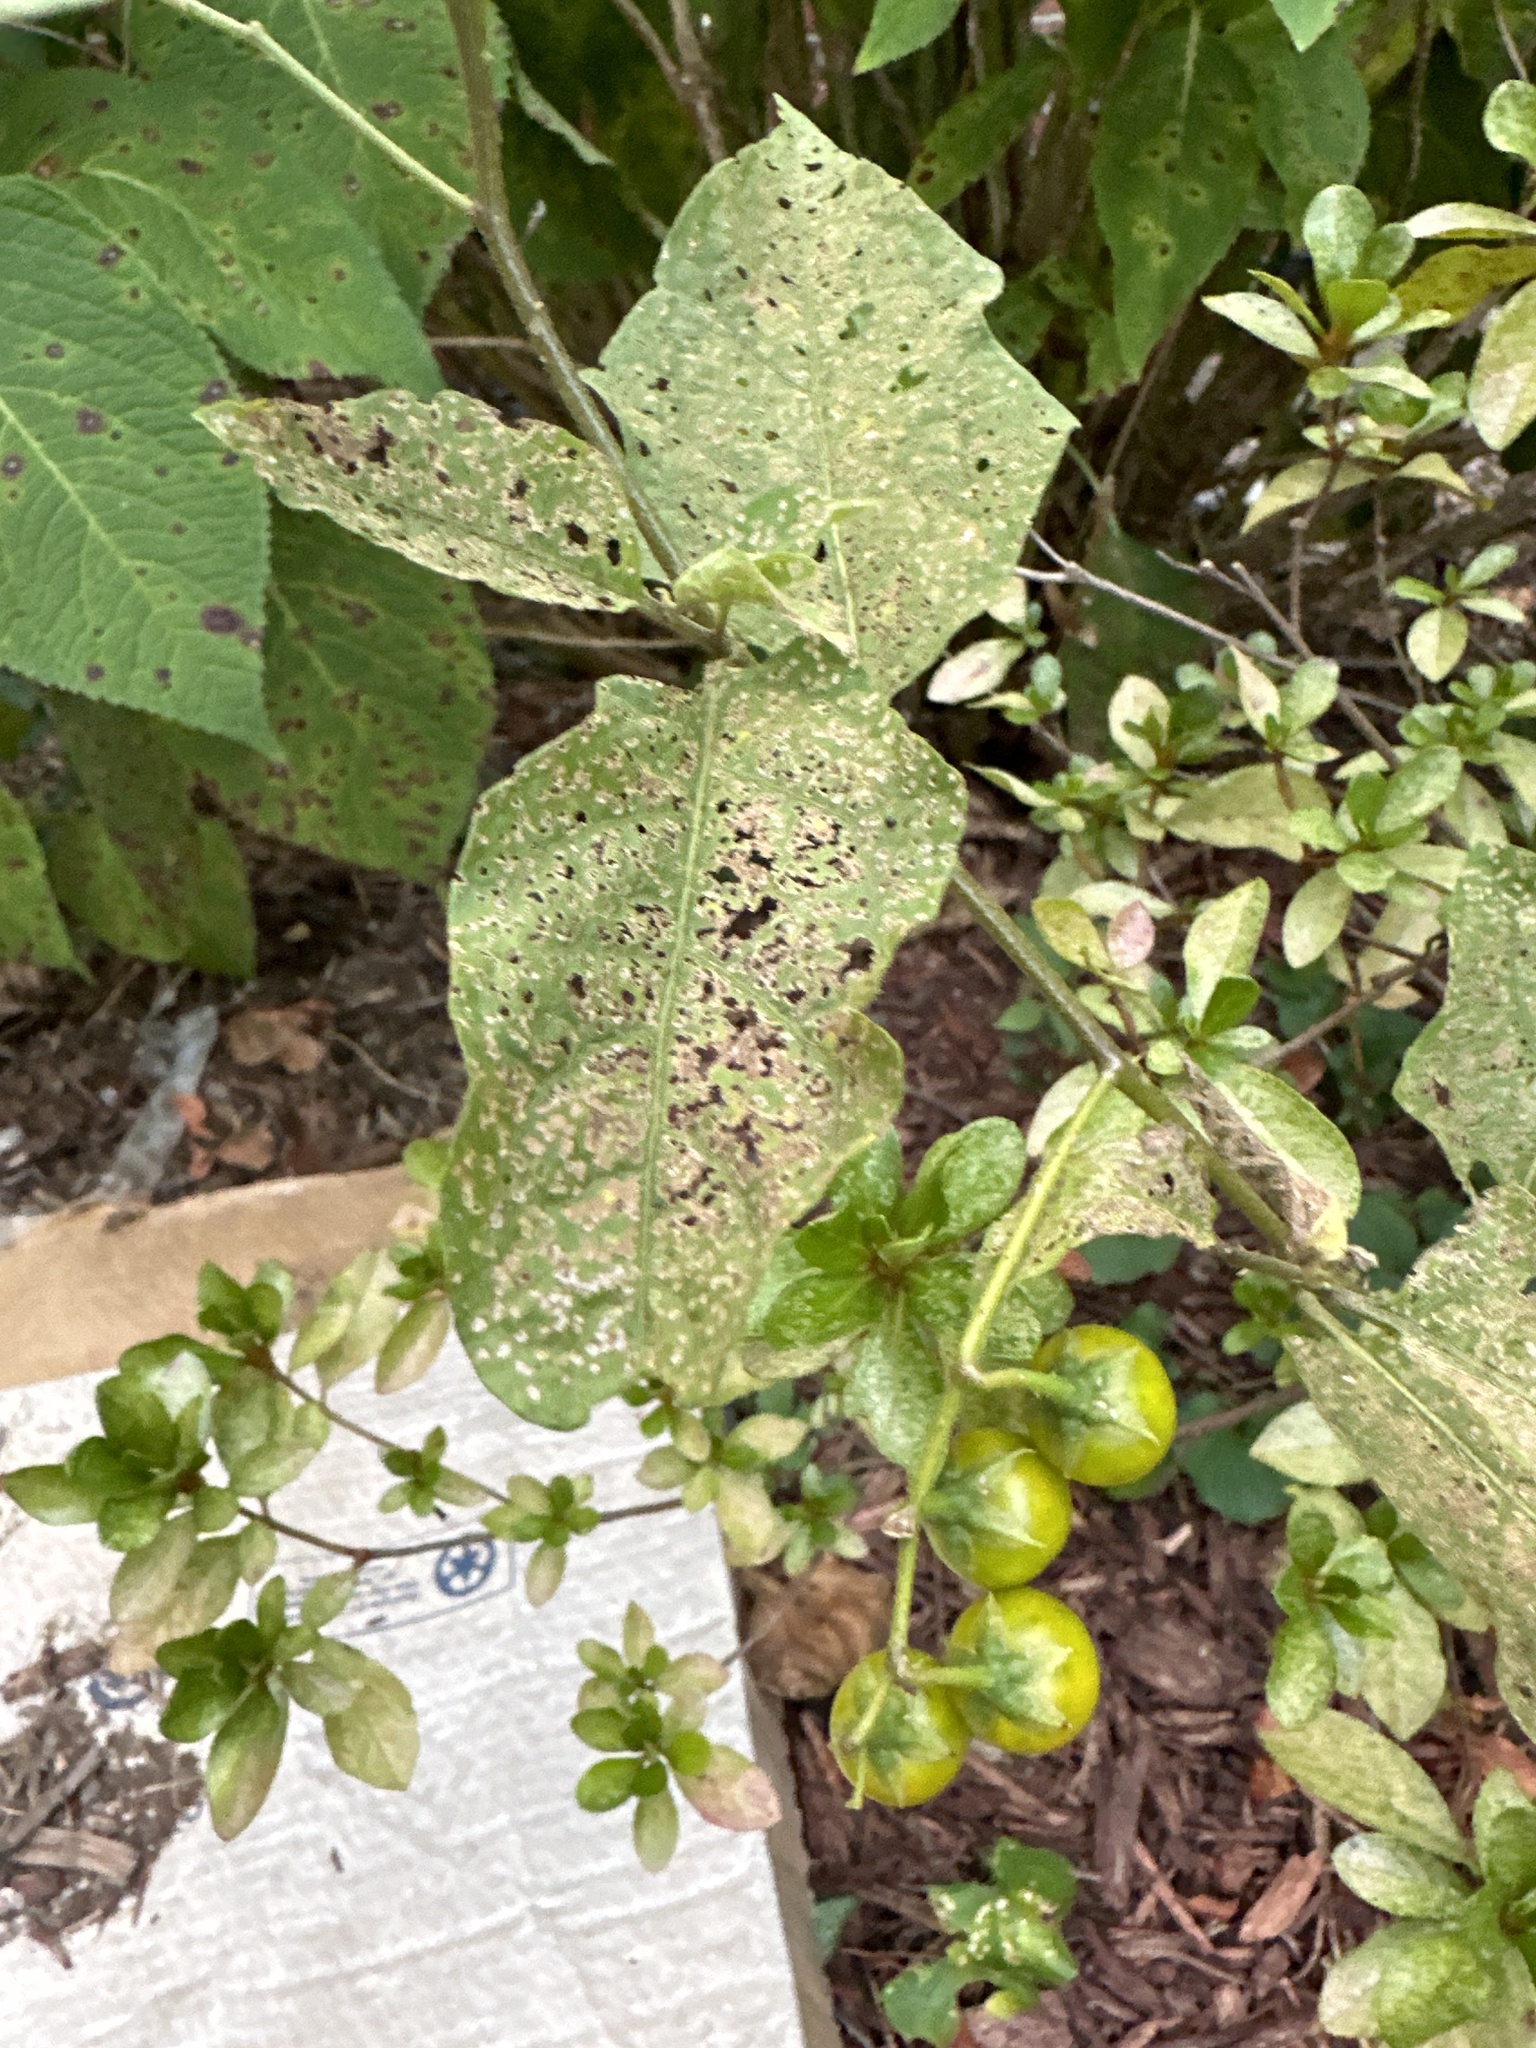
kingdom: Plantae
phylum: Tracheophyta
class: Magnoliopsida
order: Solanales
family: Solanaceae
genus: Solanum
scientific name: Solanum carolinense
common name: Horse-nettle
